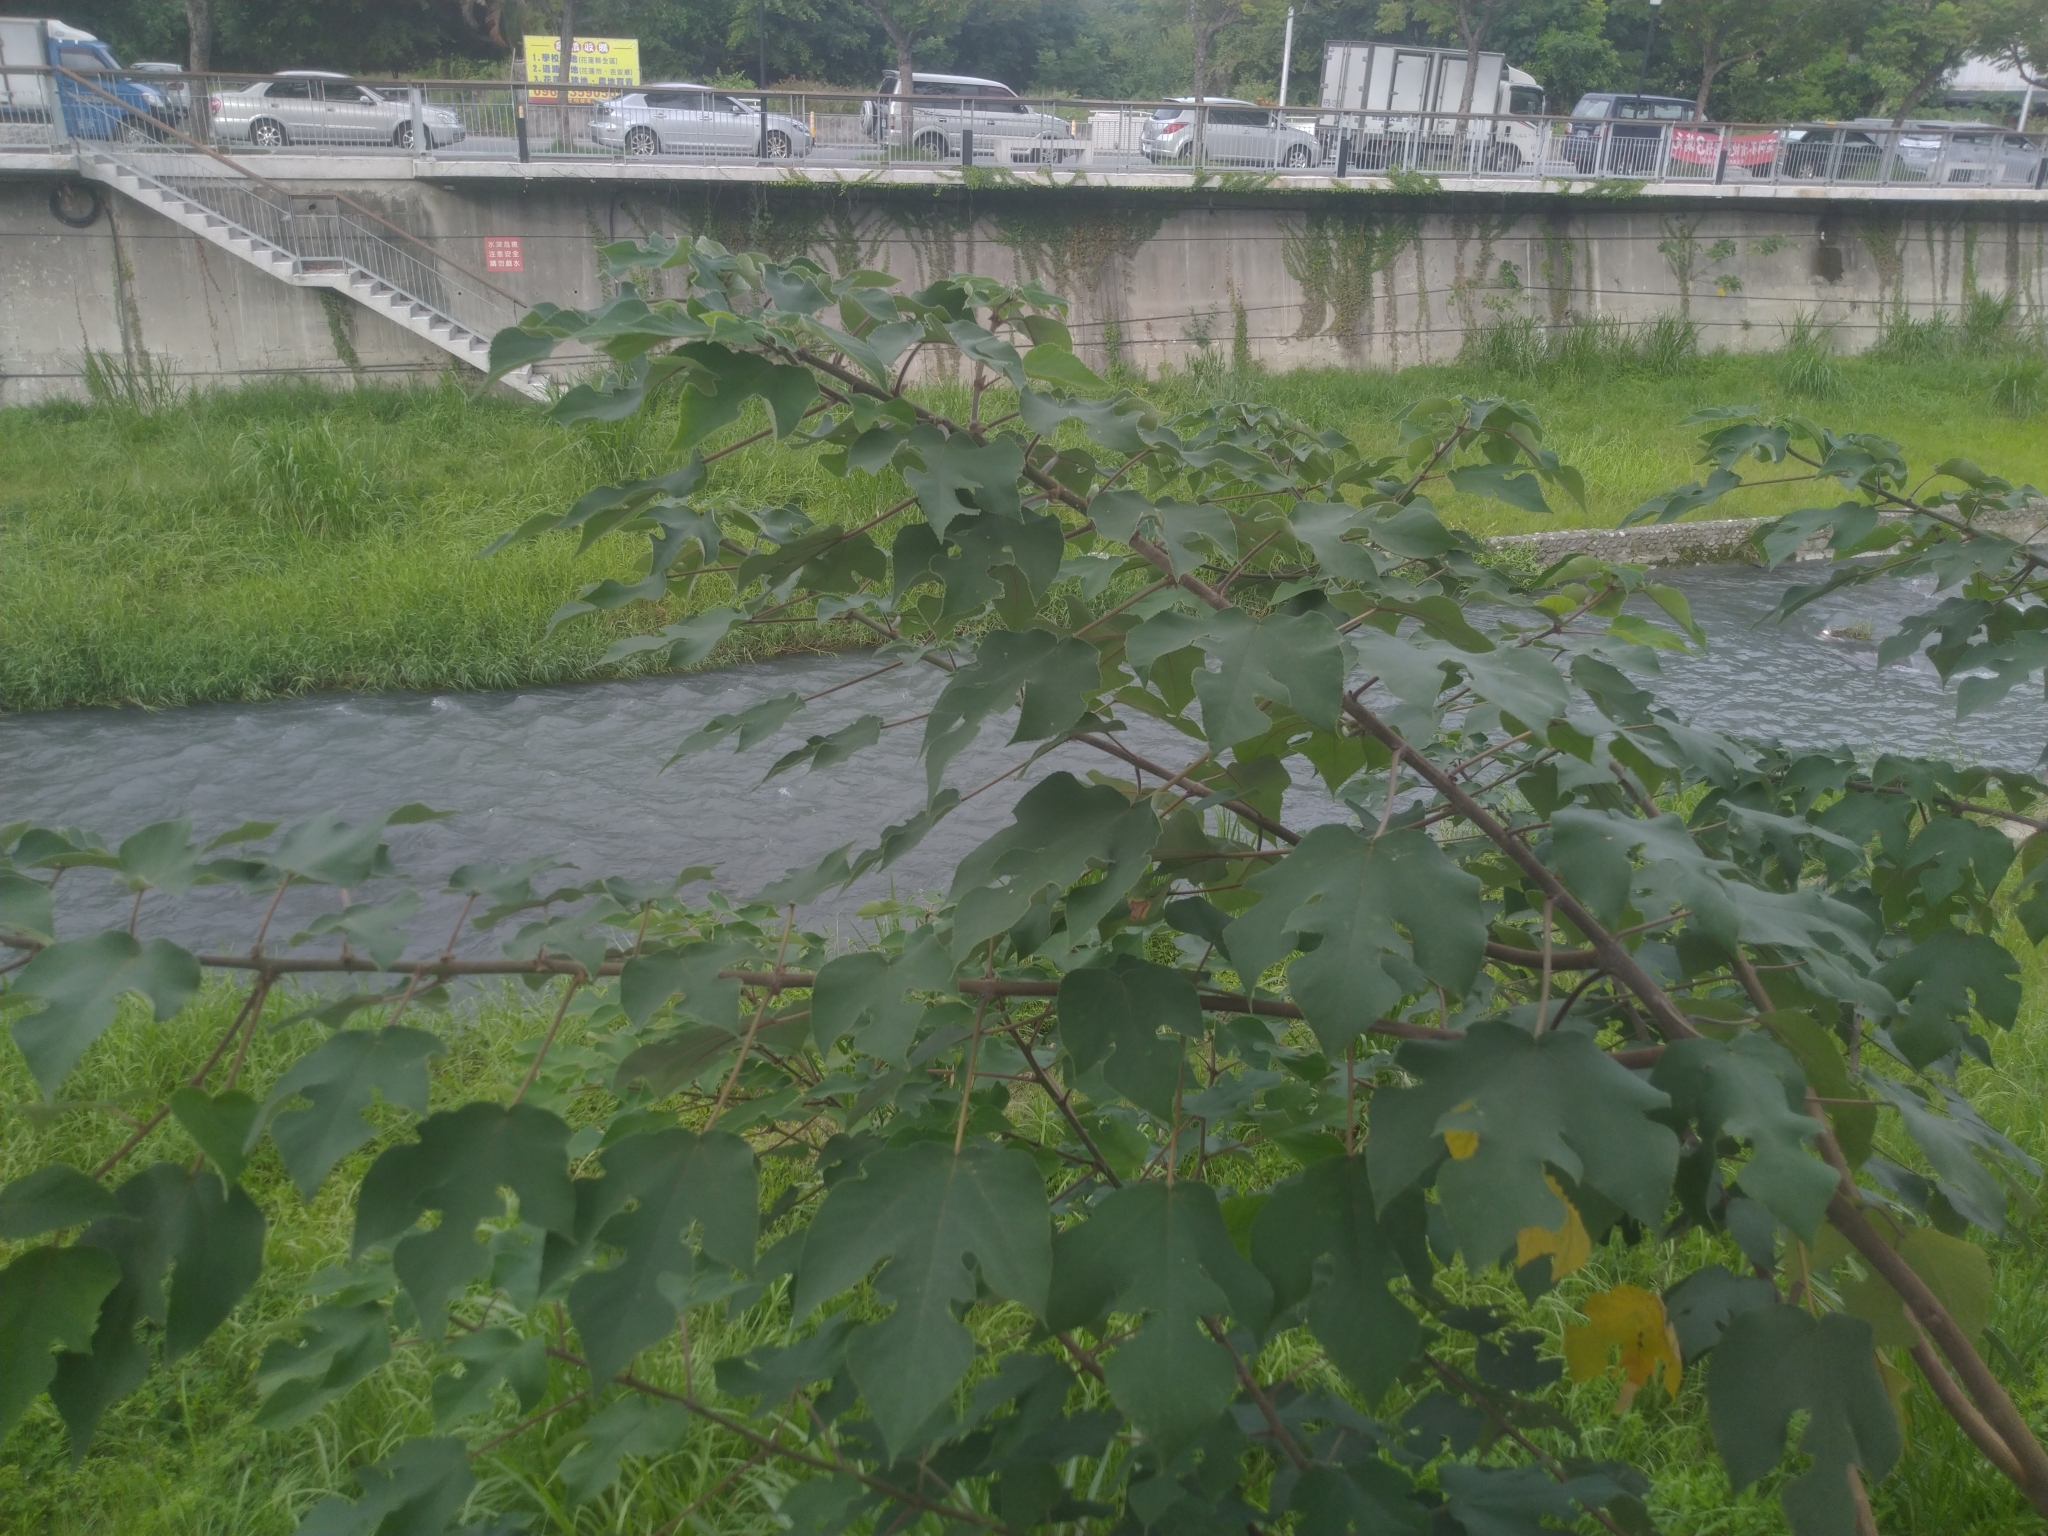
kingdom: Plantae
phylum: Tracheophyta
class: Magnoliopsida
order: Rosales
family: Moraceae
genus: Broussonetia
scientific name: Broussonetia papyrifera
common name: Paper mulberry
